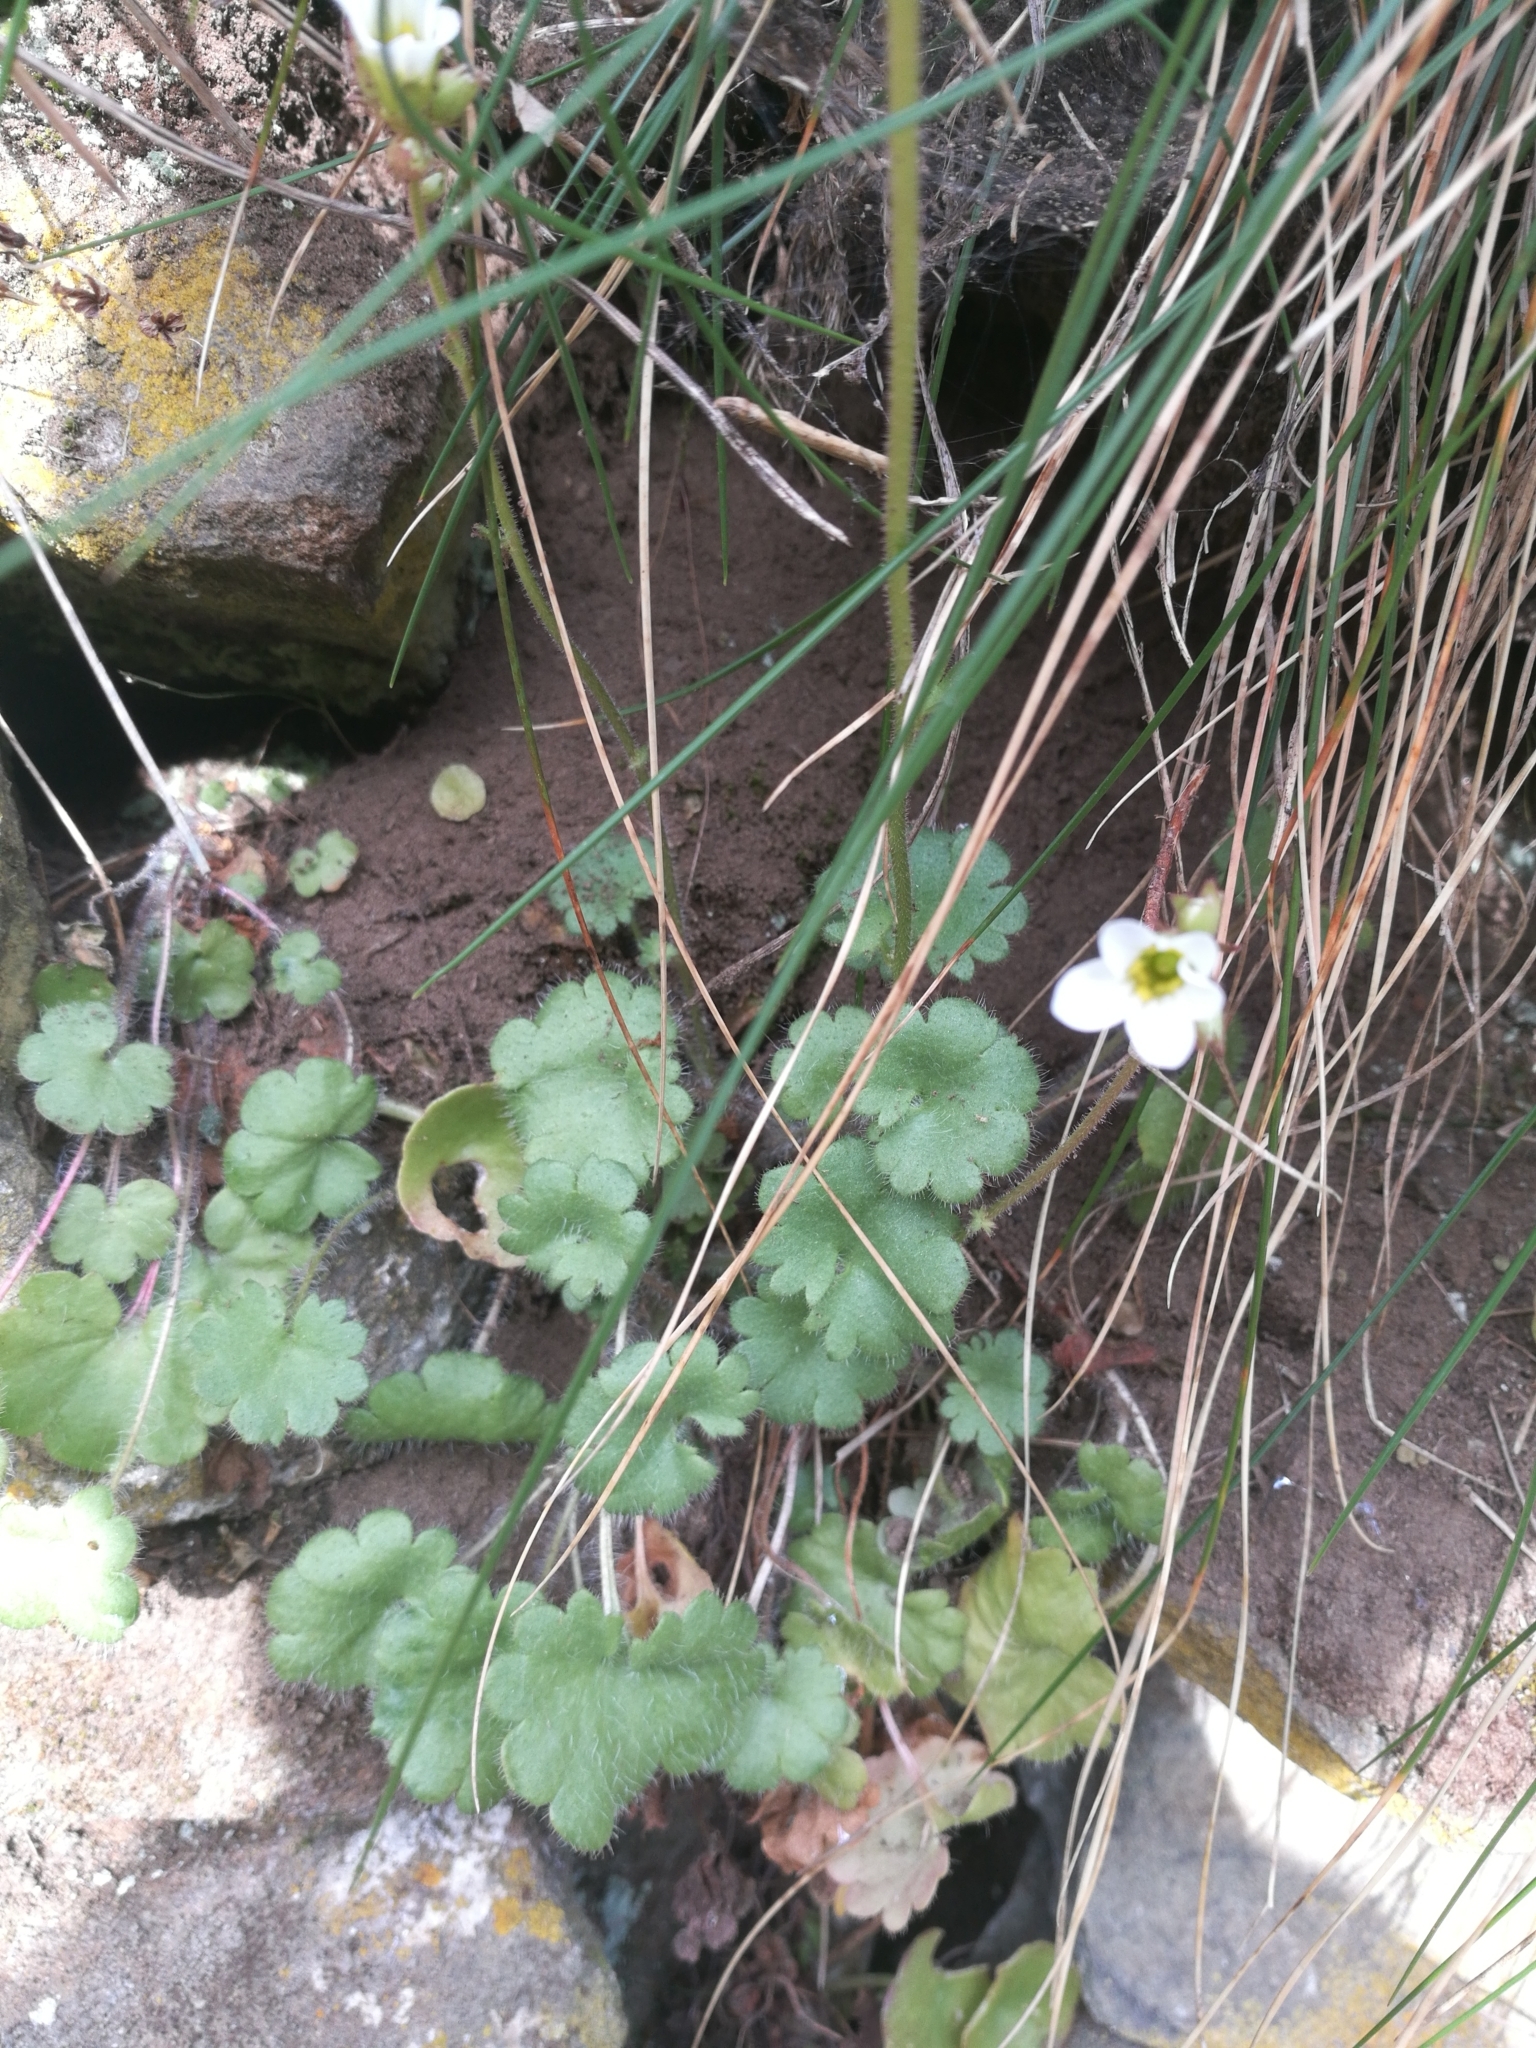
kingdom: Plantae
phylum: Tracheophyta
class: Magnoliopsida
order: Saxifragales
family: Saxifragaceae
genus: Saxifraga
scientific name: Saxifraga granulata
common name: Meadow saxifrage
